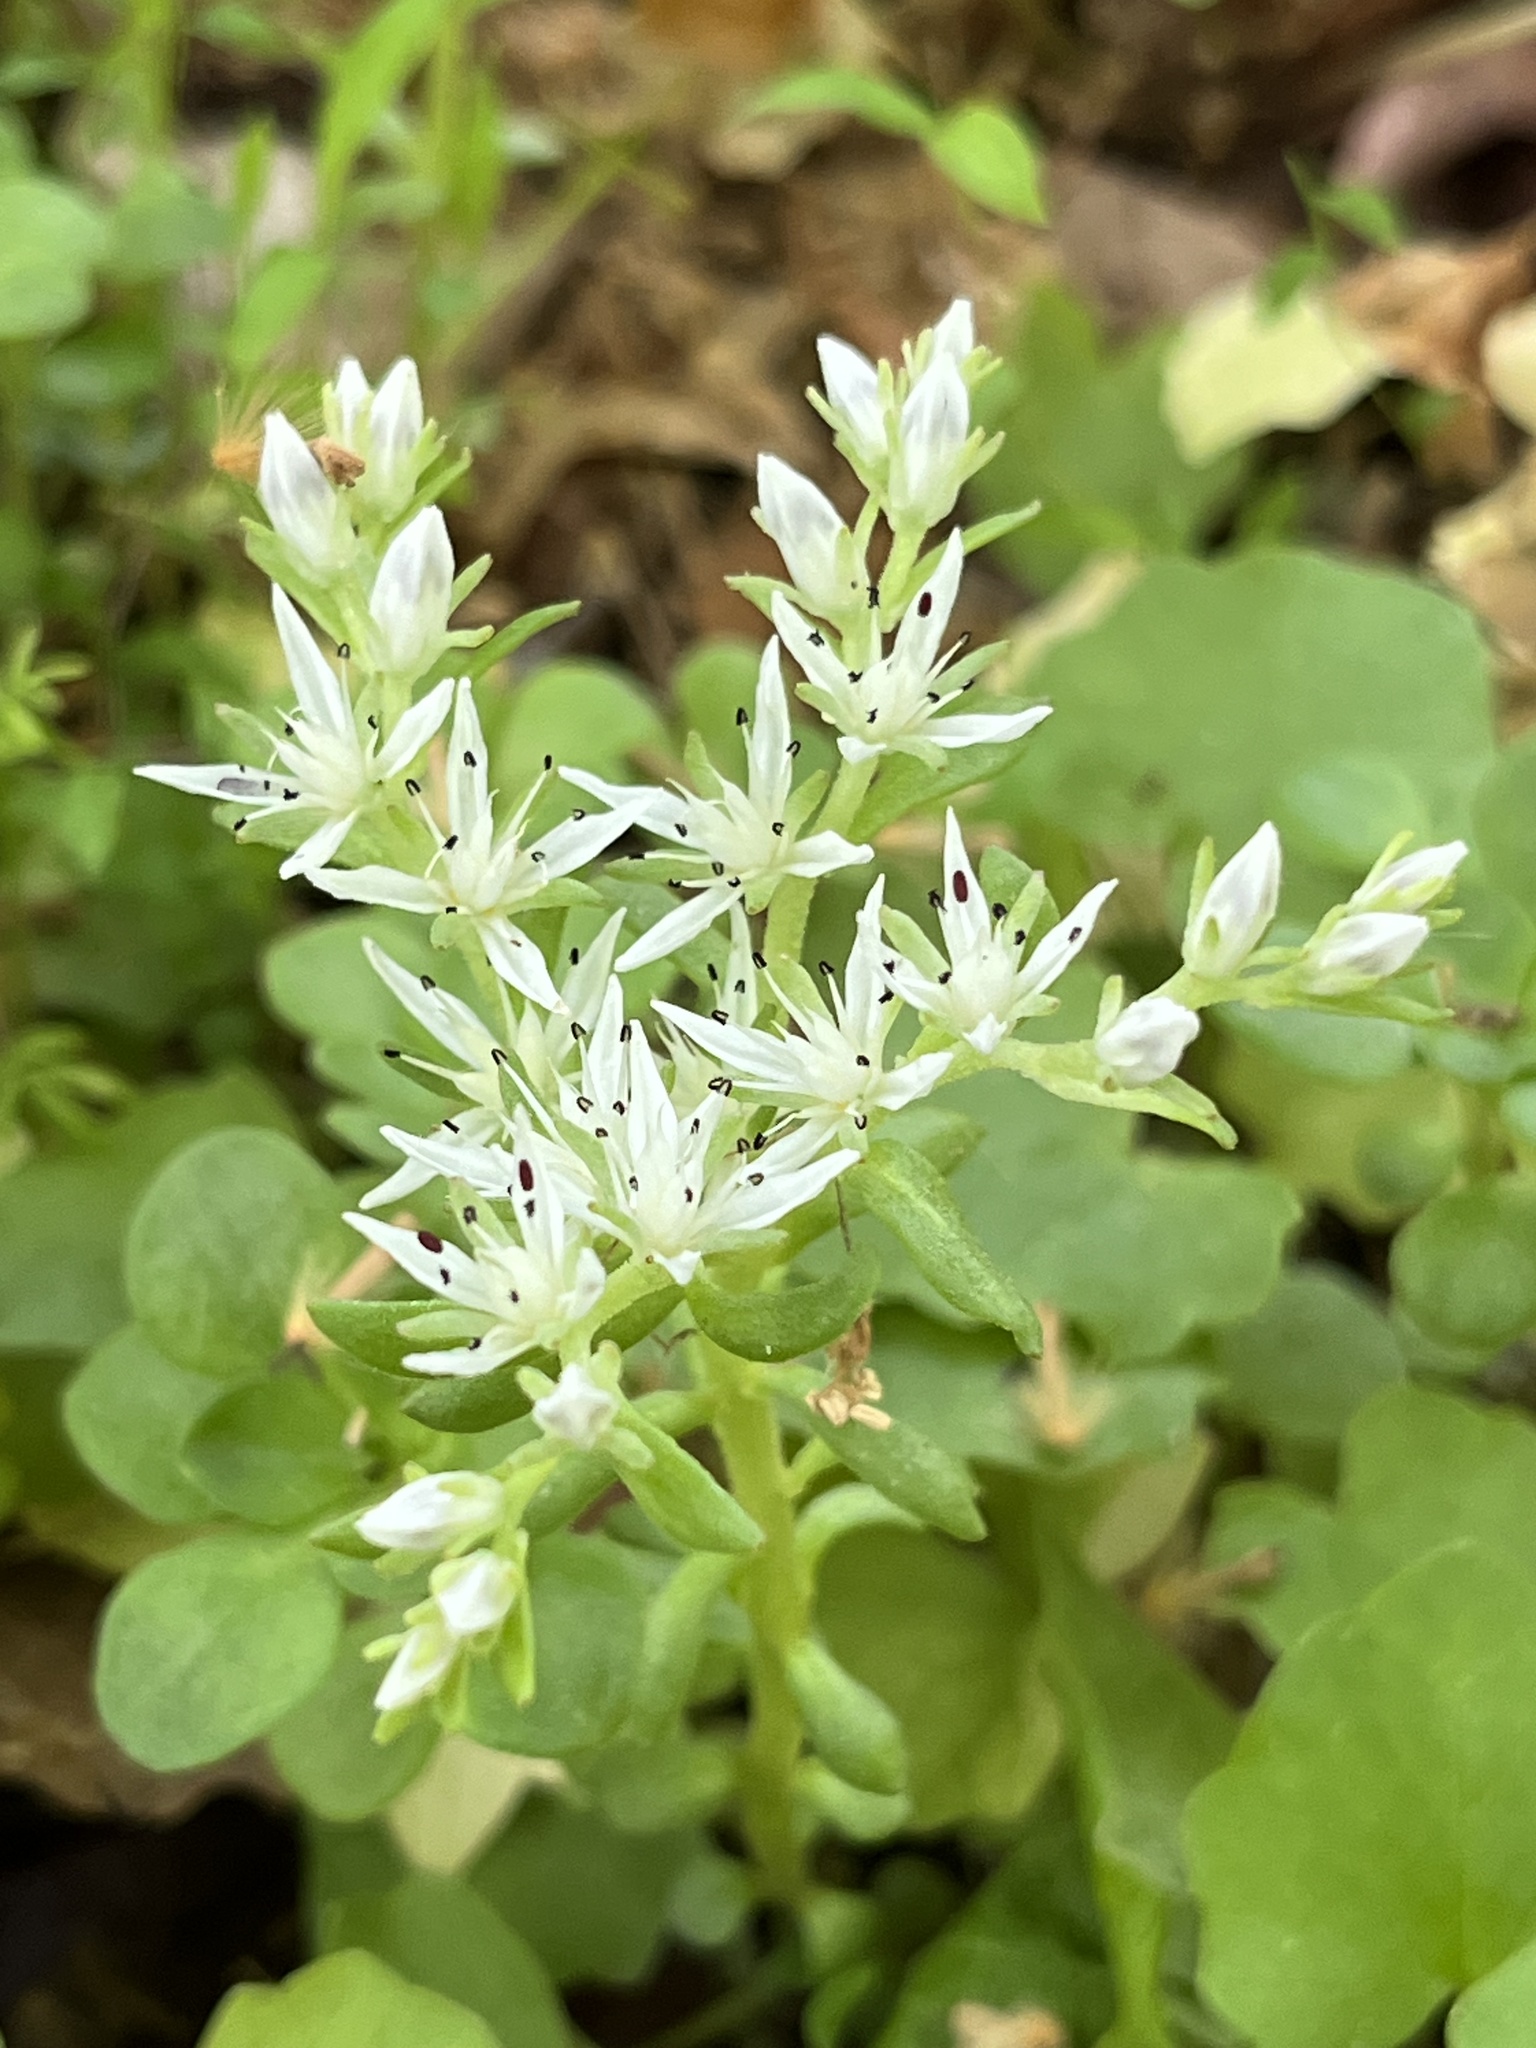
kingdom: Plantae
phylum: Tracheophyta
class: Magnoliopsida
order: Saxifragales
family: Crassulaceae
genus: Sedum
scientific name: Sedum ternatum
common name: Wild stonecrop
